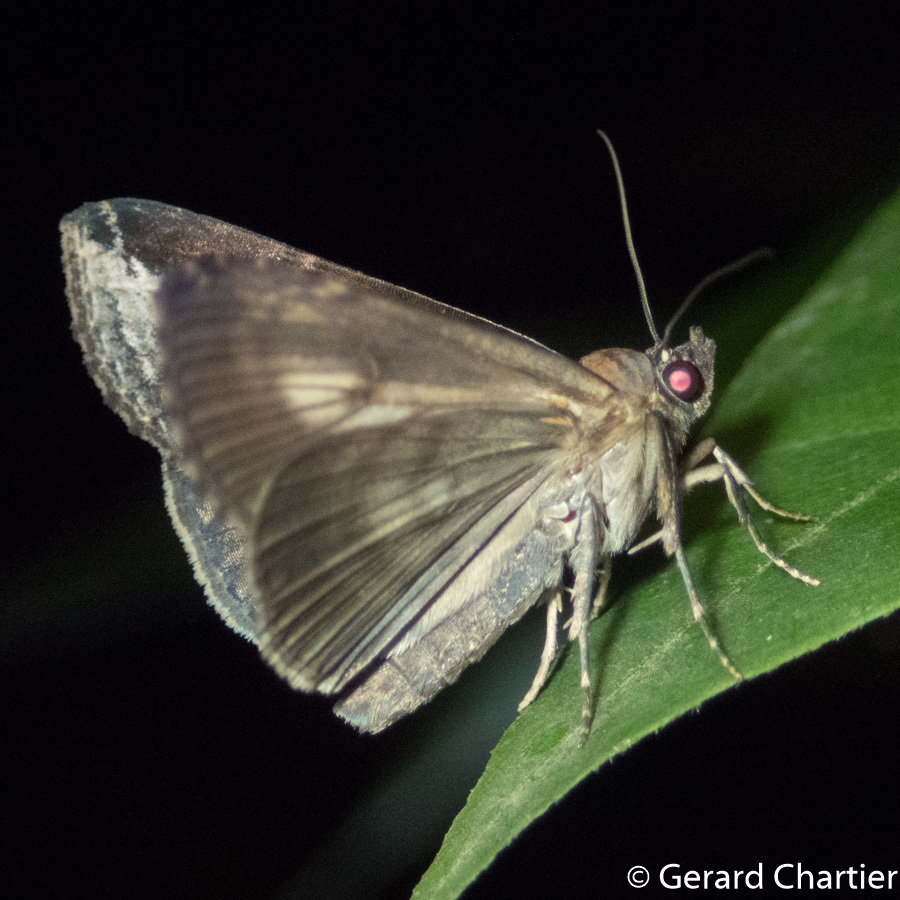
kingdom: Animalia
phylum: Arthropoda
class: Insecta
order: Lepidoptera
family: Euteliidae
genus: Lophoptera
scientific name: Lophoptera squammigera
